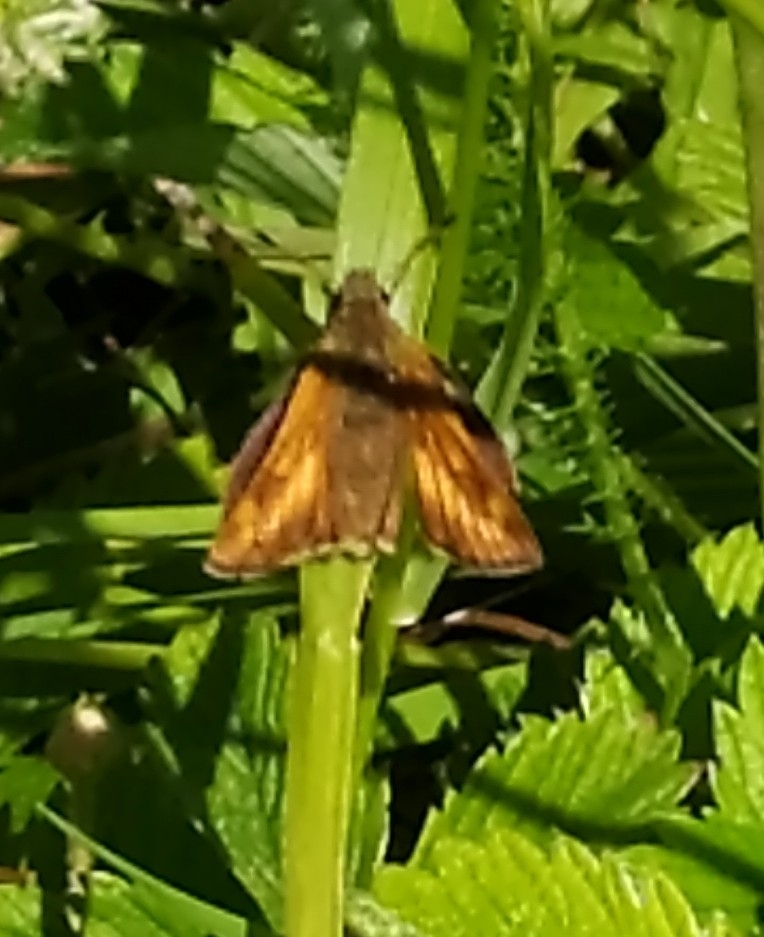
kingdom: Animalia
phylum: Arthropoda
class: Insecta
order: Lepidoptera
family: Hesperiidae
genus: Ochlodes
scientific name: Ochlodes venata
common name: Large skipper
